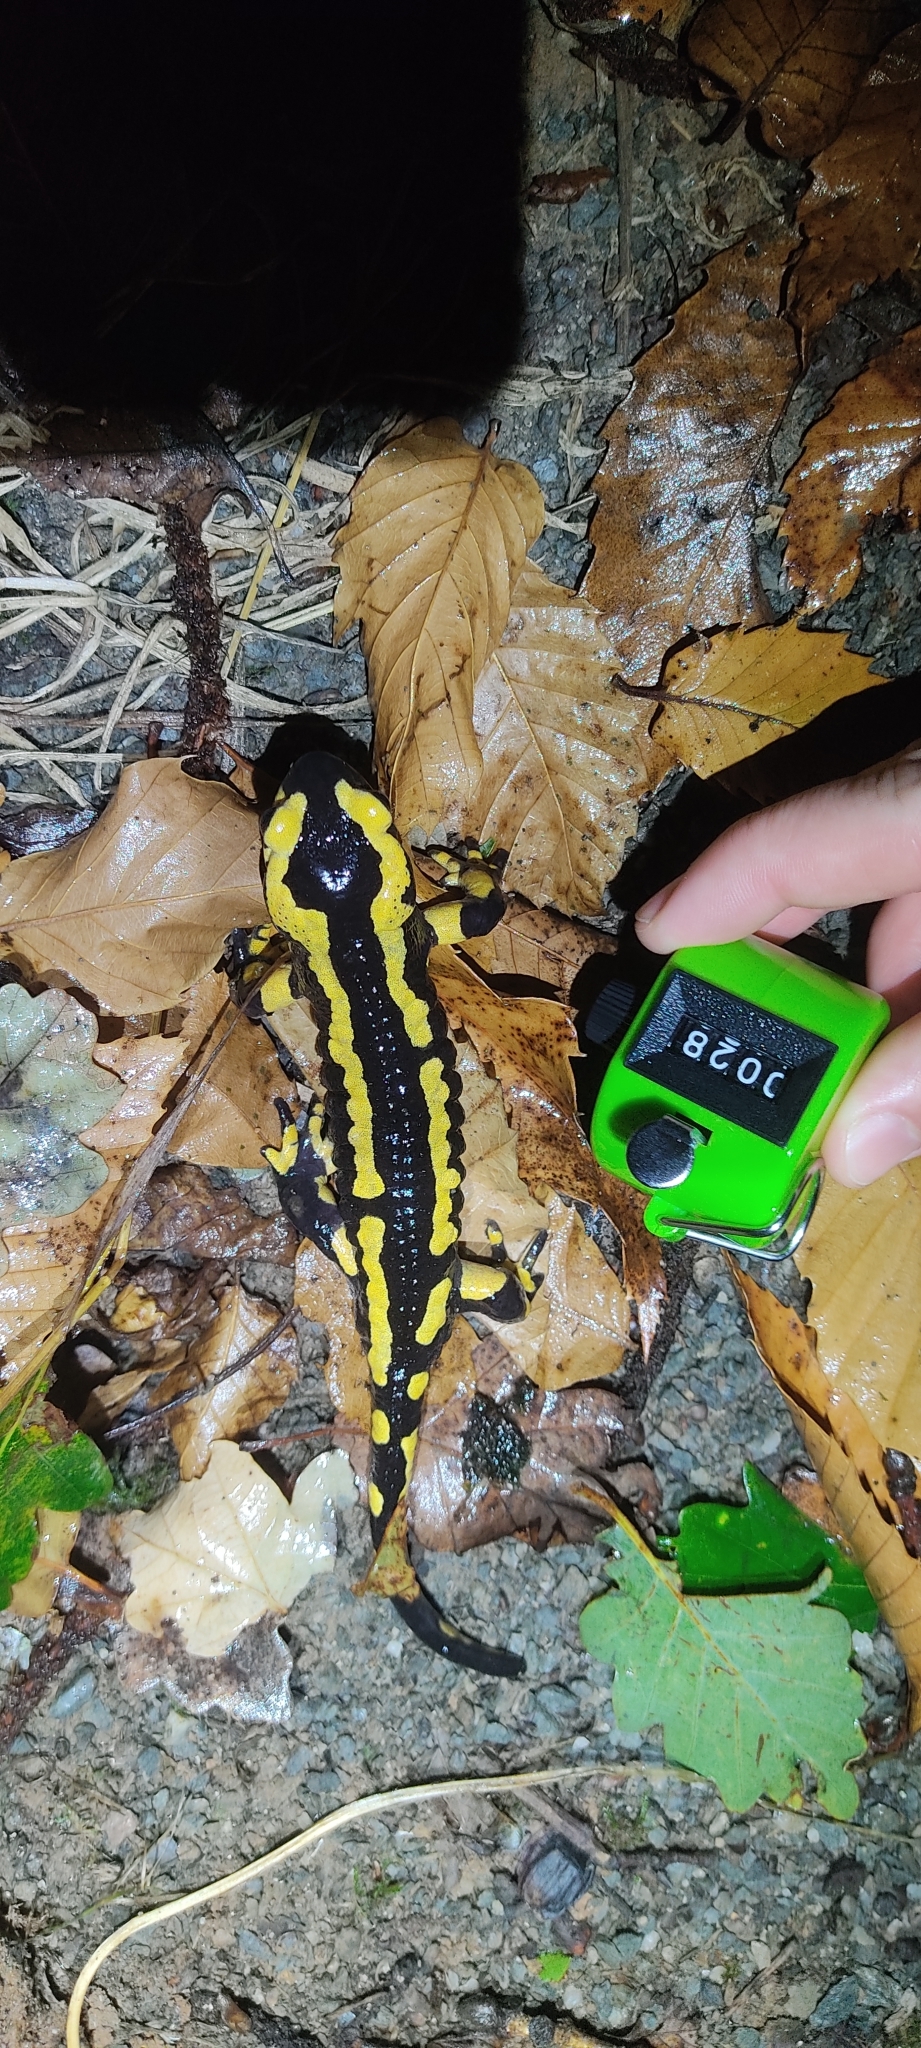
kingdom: Animalia
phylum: Chordata
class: Amphibia
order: Caudata
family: Salamandridae
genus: Salamandra
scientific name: Salamandra salamandra
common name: Fire salamander
